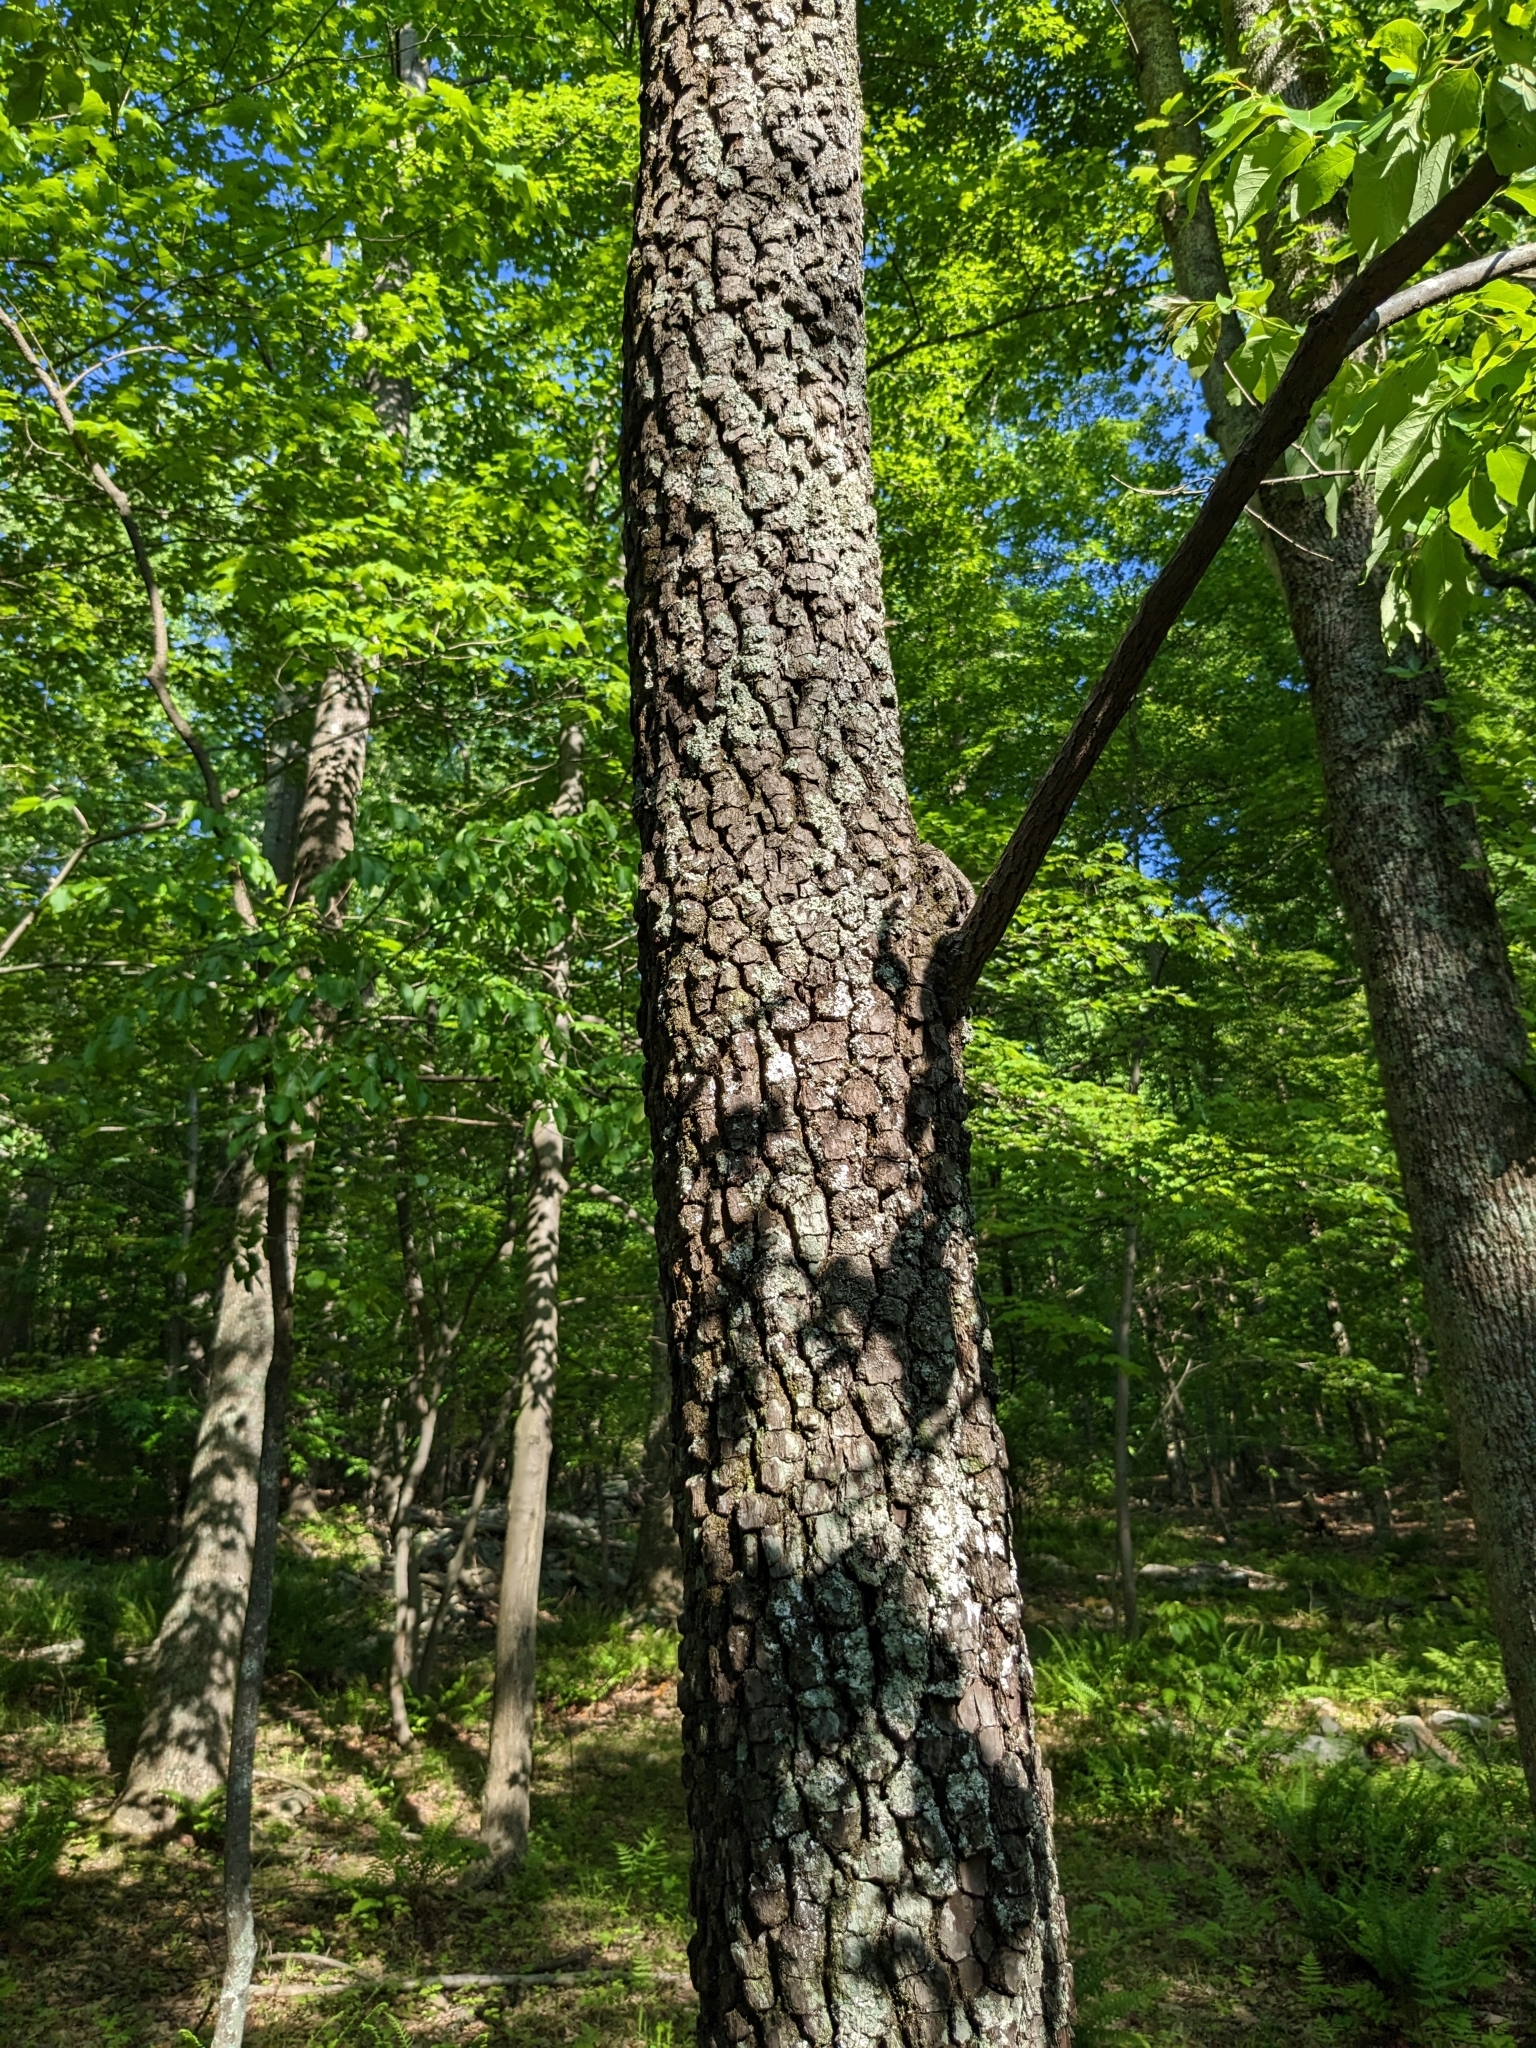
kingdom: Plantae
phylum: Tracheophyta
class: Magnoliopsida
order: Ericales
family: Ebenaceae
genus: Diospyros
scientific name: Diospyros virginiana
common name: Persimmon
